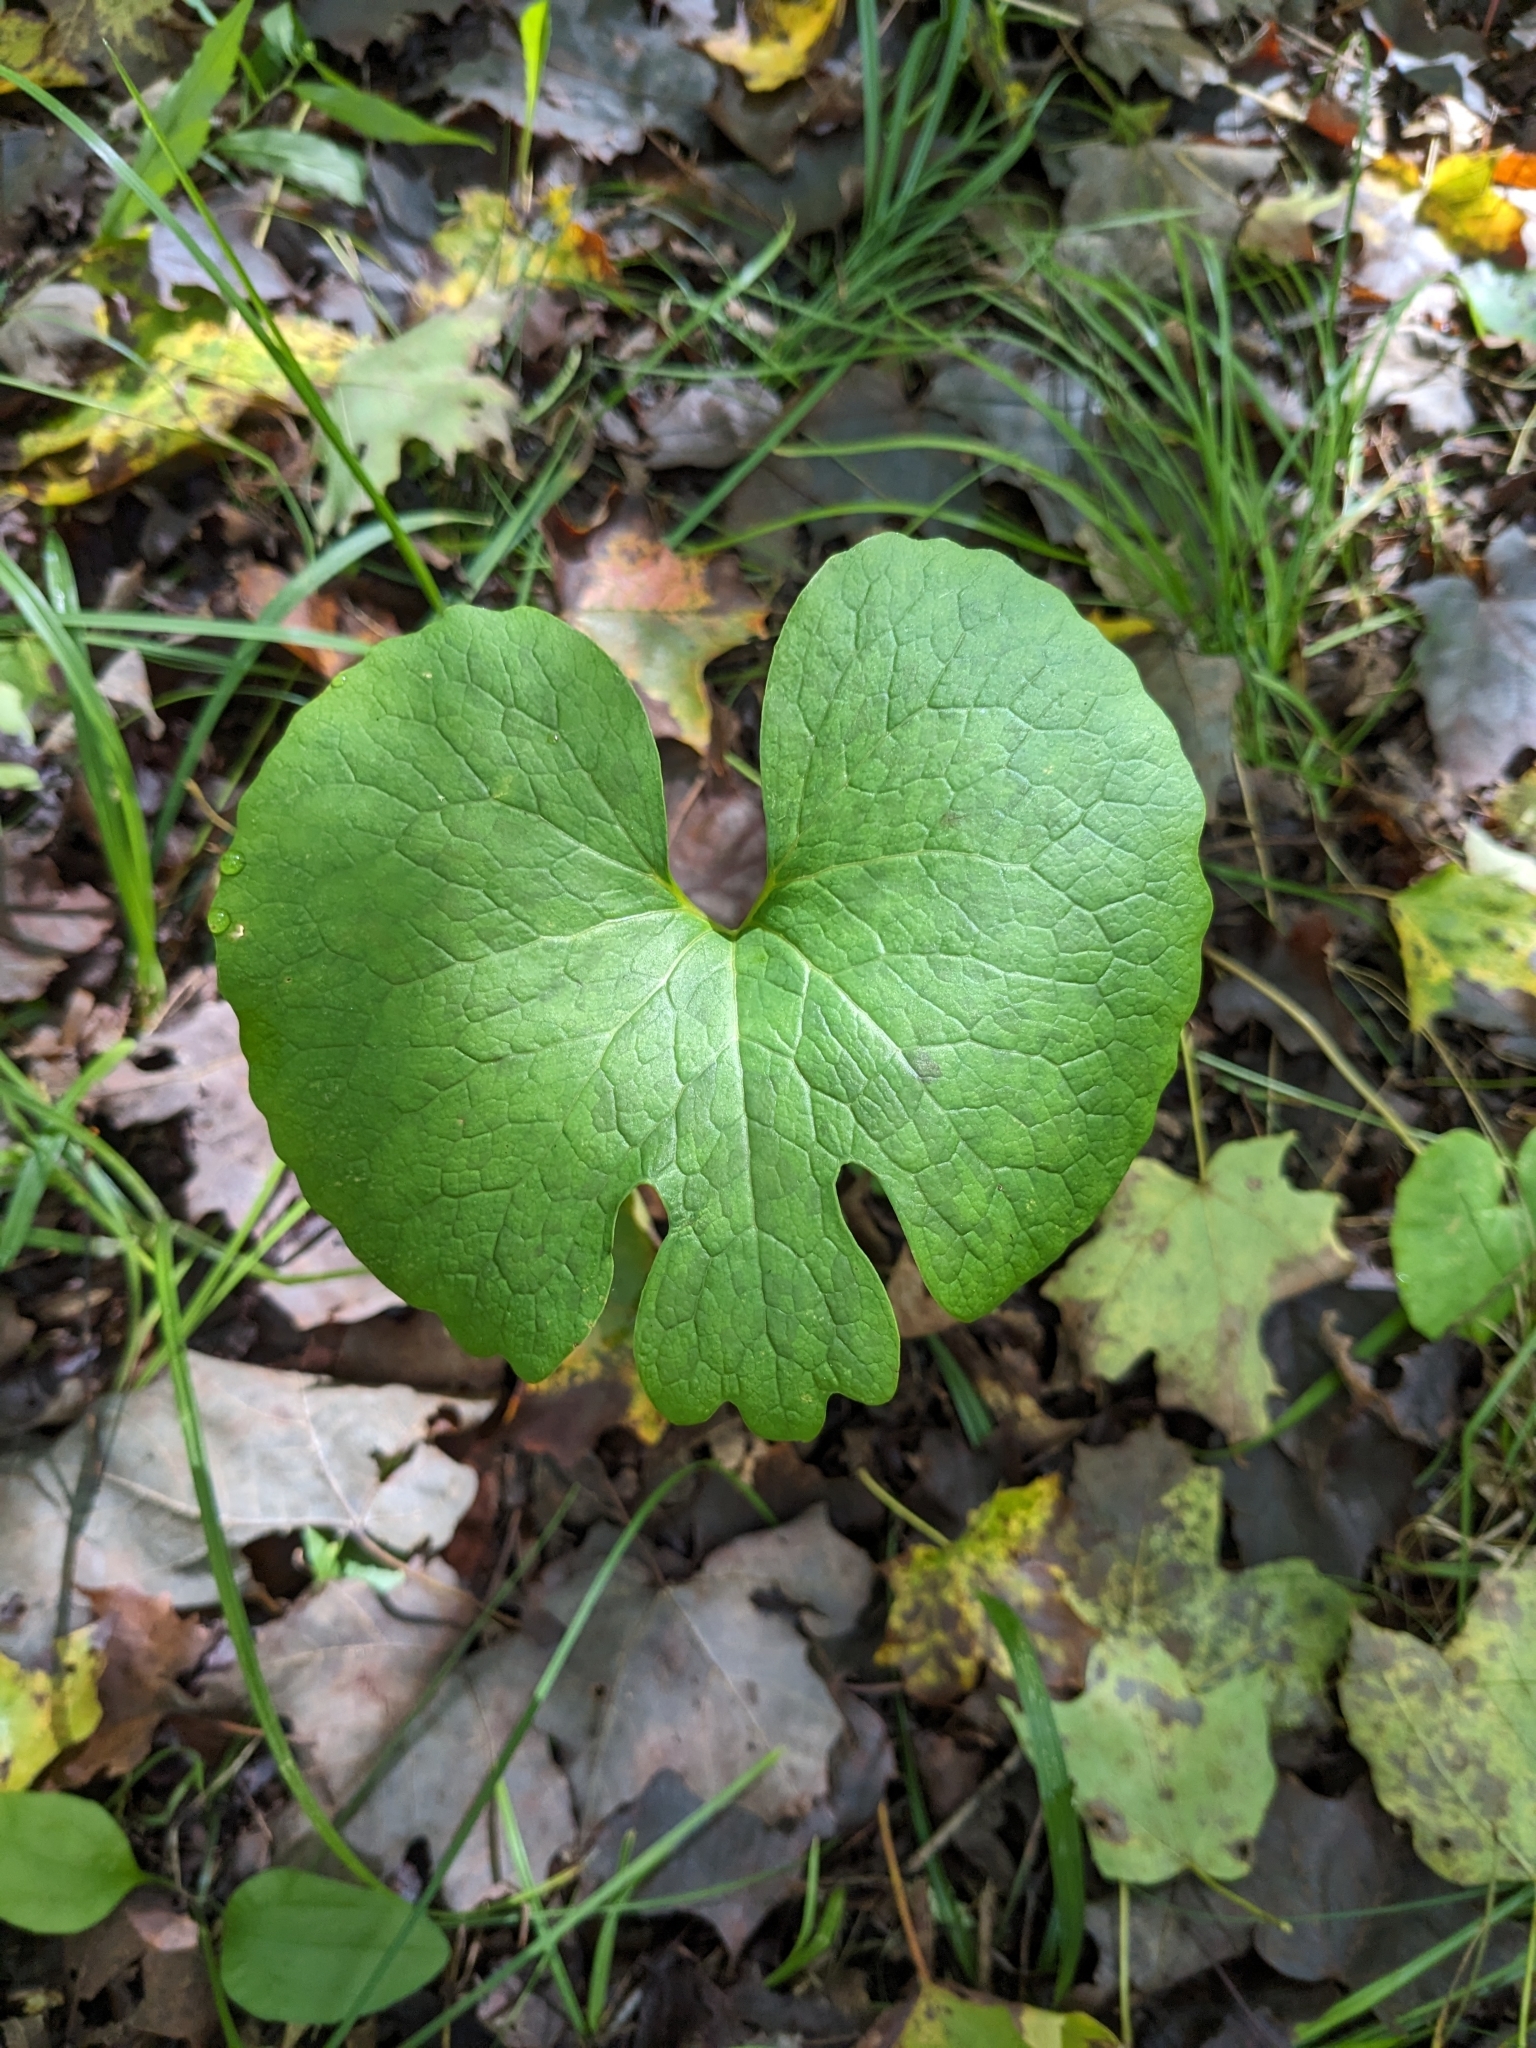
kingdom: Plantae
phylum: Tracheophyta
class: Magnoliopsida
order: Ranunculales
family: Papaveraceae
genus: Sanguinaria
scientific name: Sanguinaria canadensis
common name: Bloodroot
